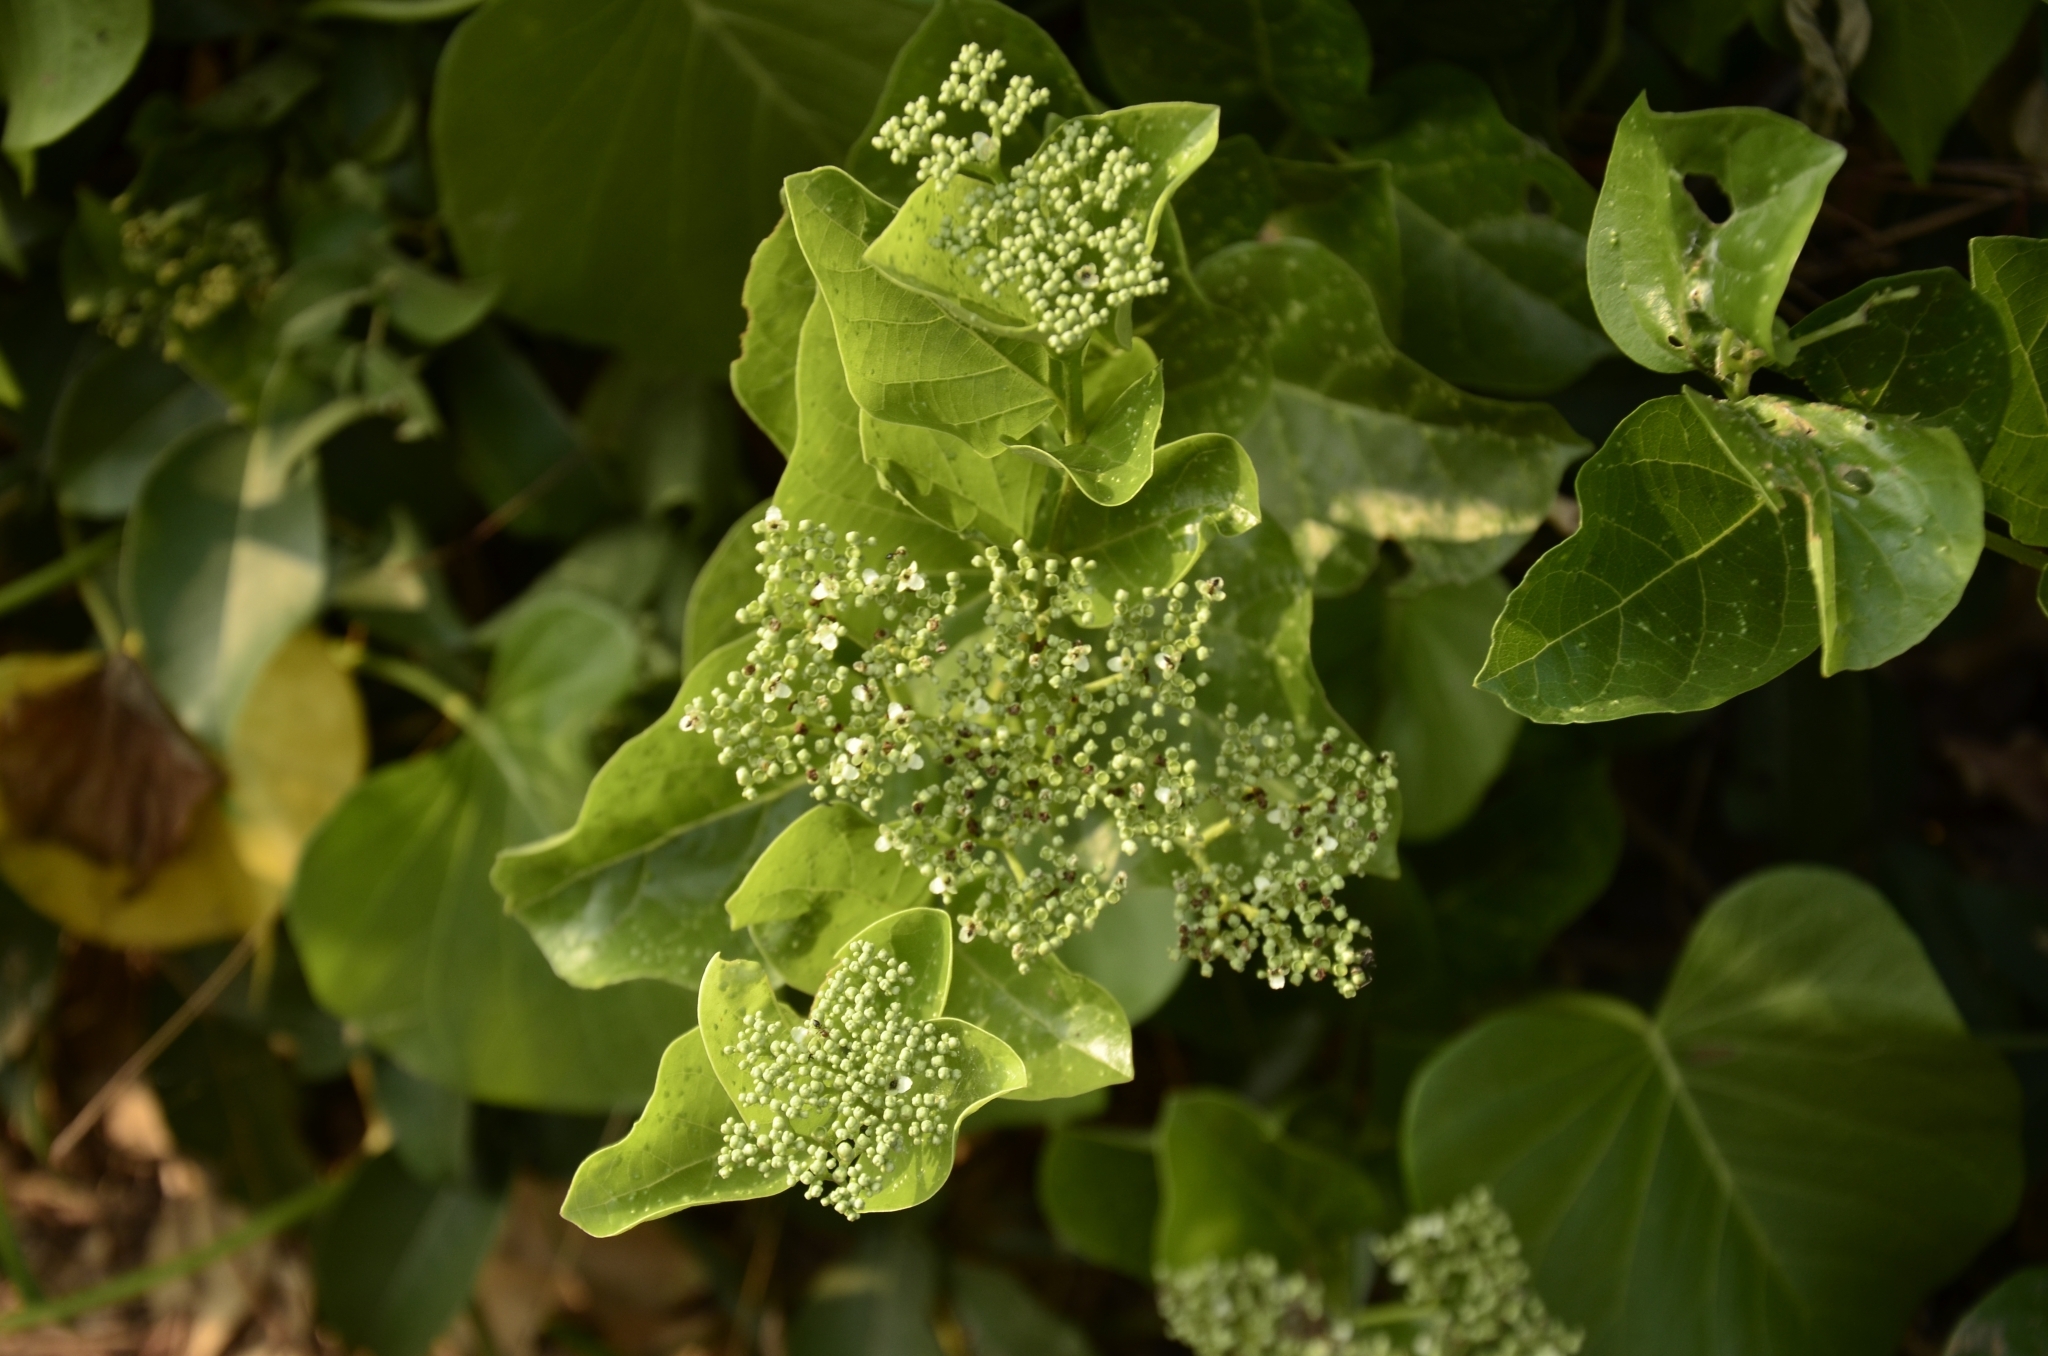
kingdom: Plantae
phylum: Tracheophyta
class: Magnoliopsida
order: Lamiales
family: Lamiaceae
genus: Premna
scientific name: Premna serratifolia
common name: Bastard guelder
